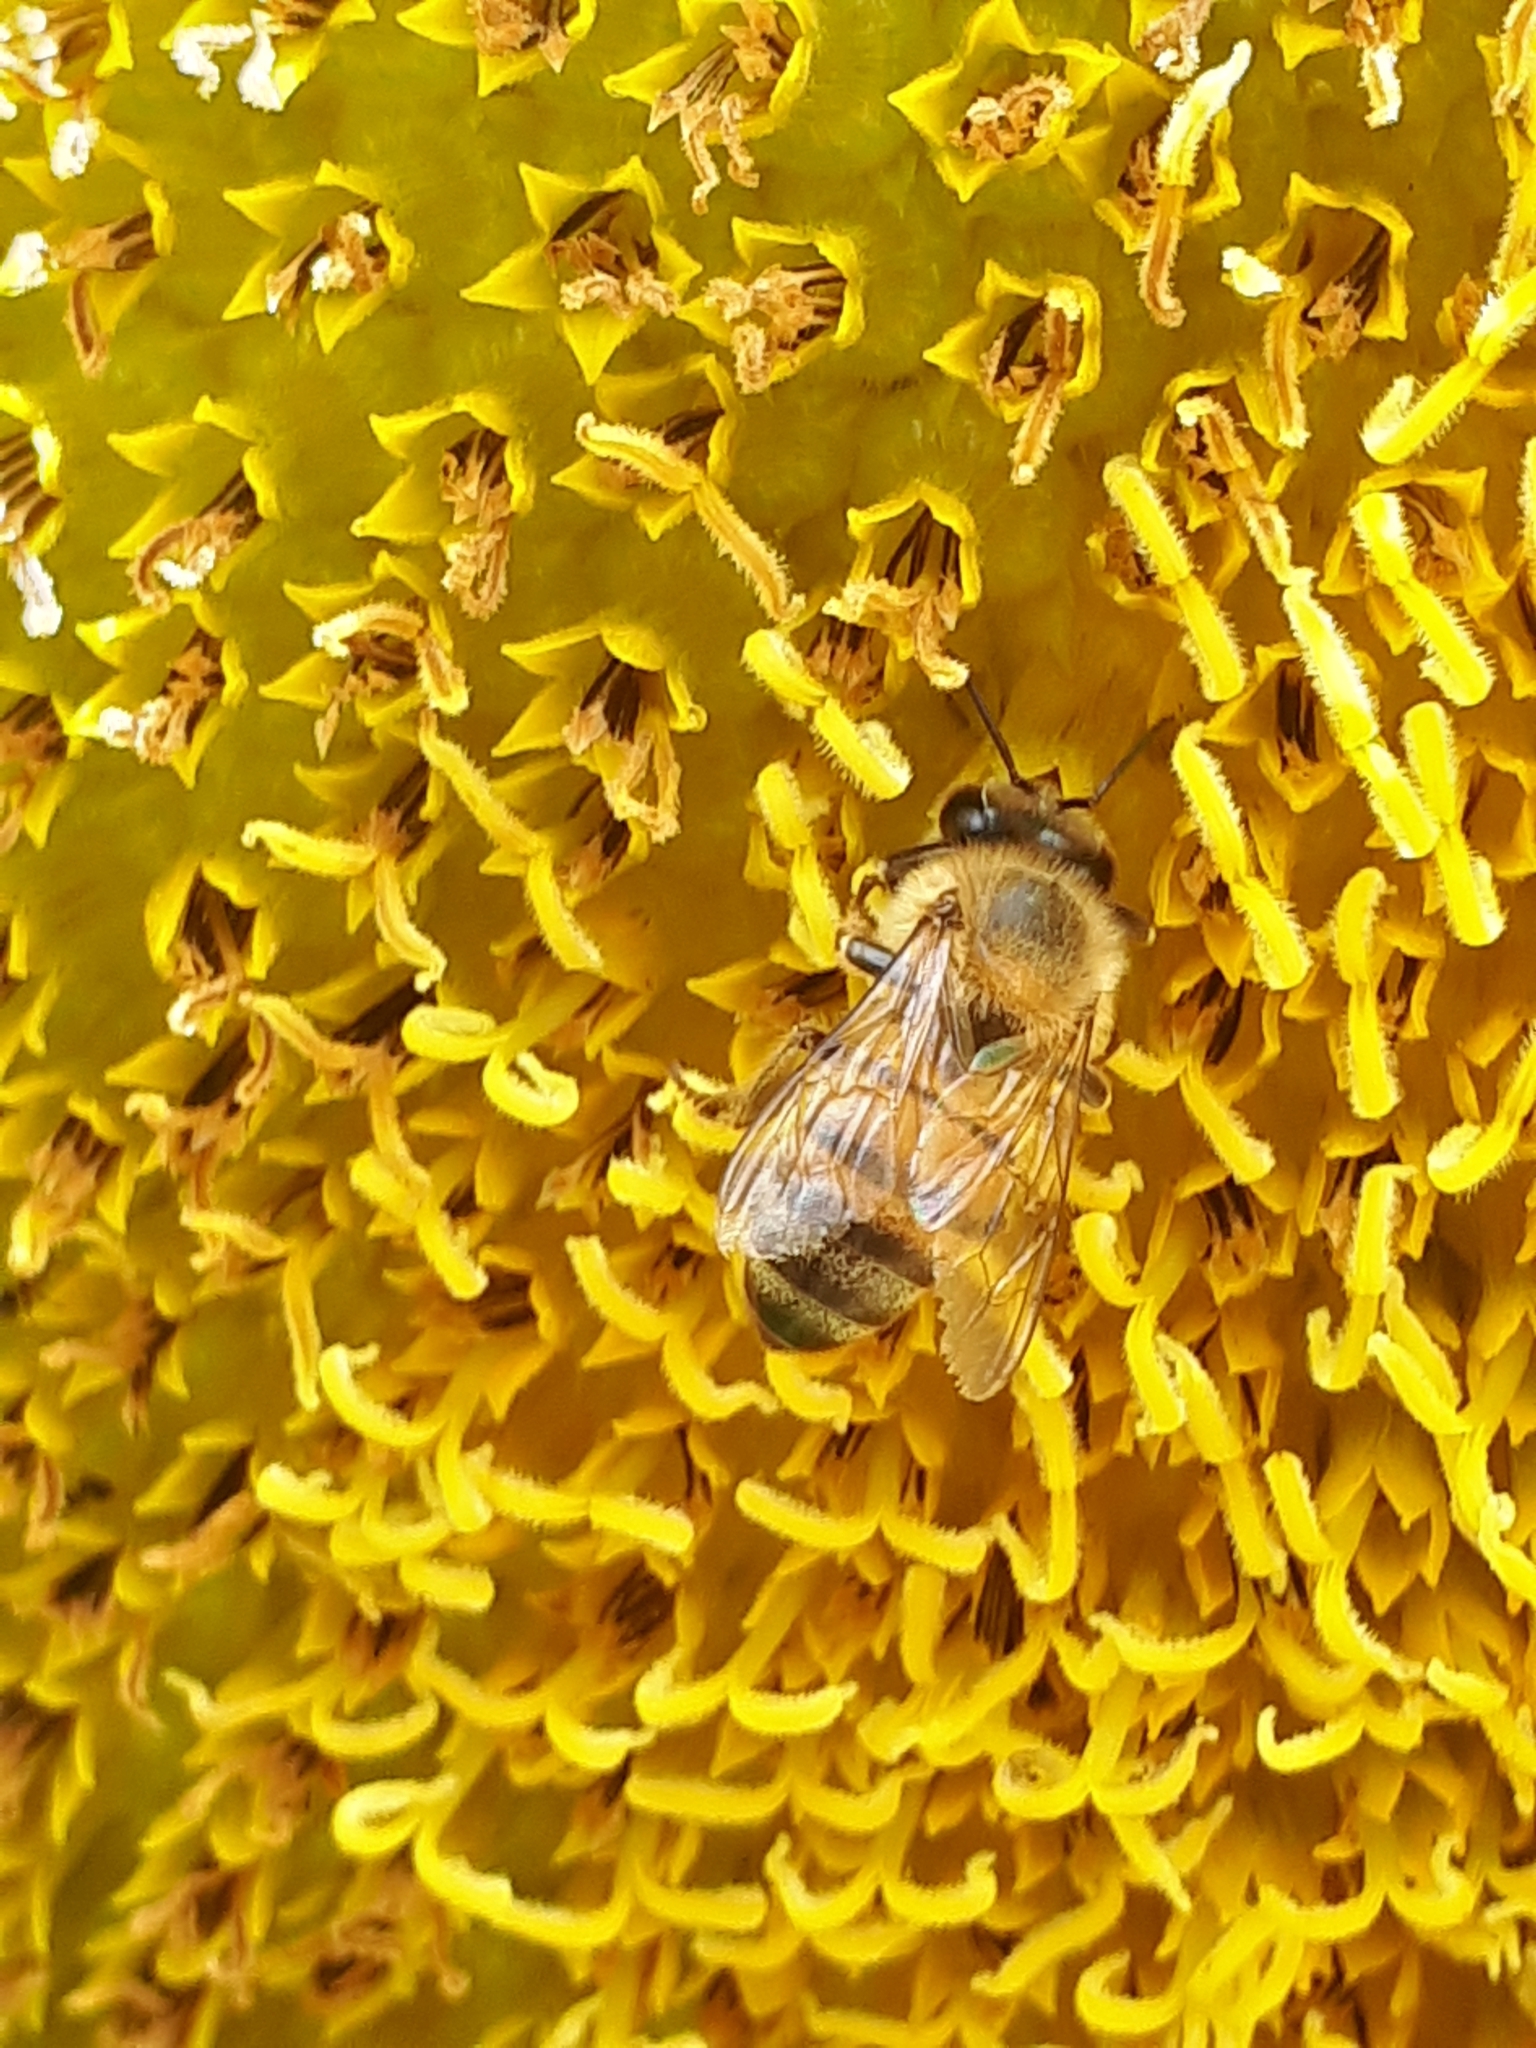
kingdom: Animalia
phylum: Arthropoda
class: Insecta
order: Hymenoptera
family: Apidae
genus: Apis
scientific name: Apis mellifera
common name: Honey bee
